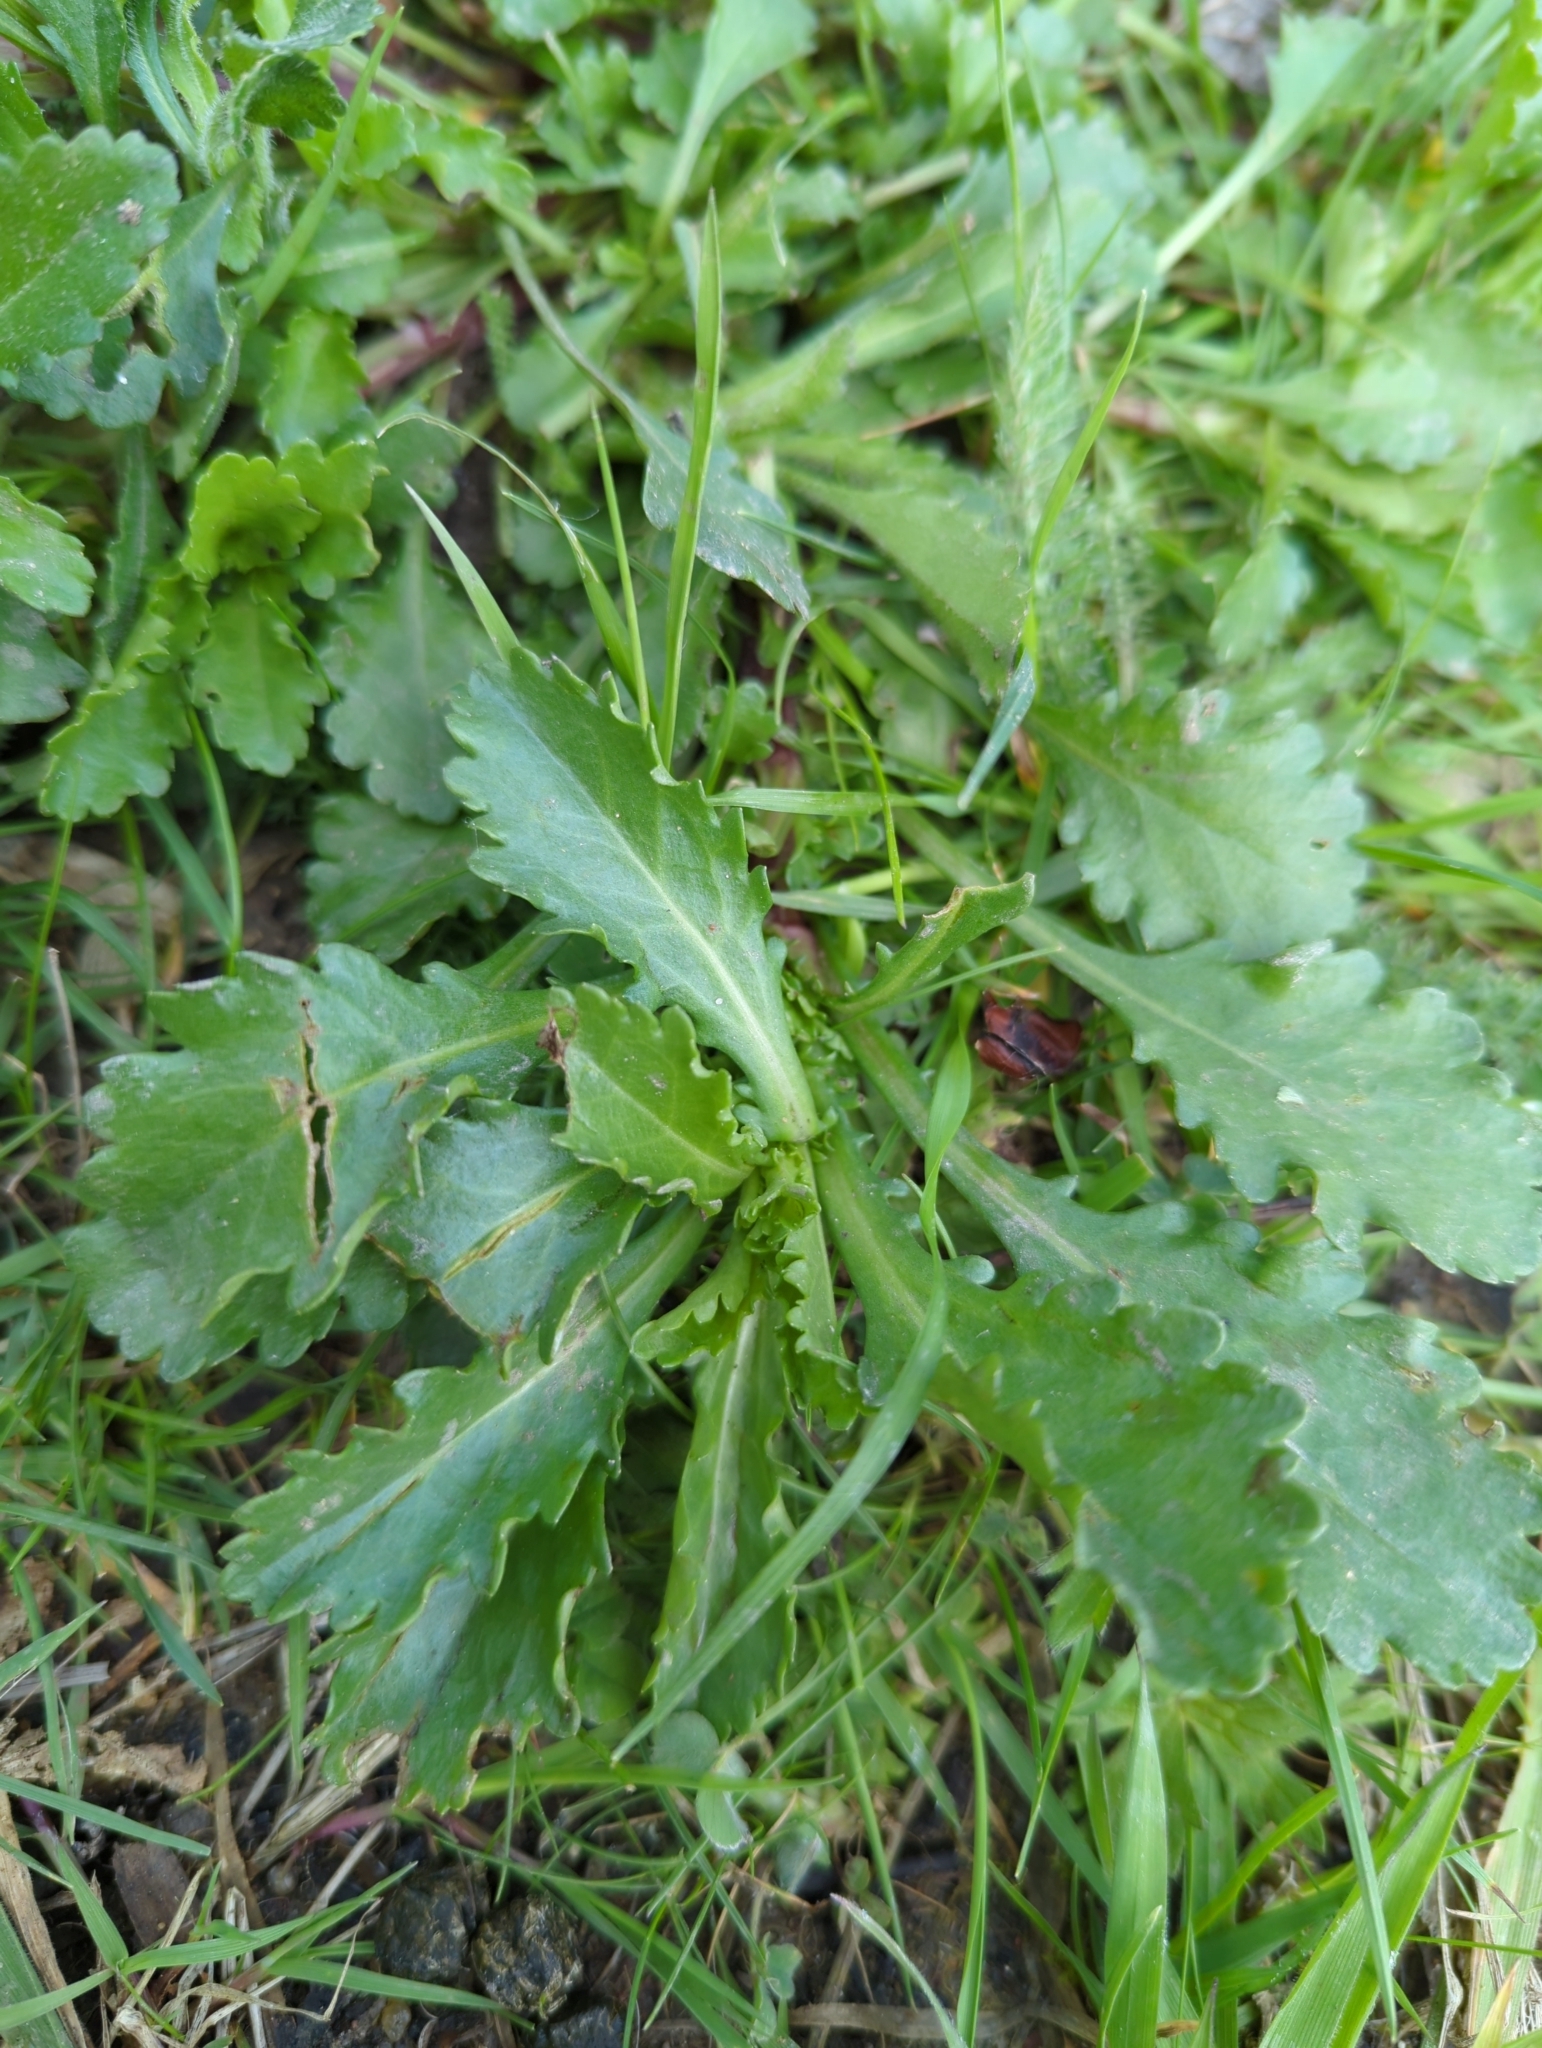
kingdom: Plantae
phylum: Tracheophyta
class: Magnoliopsida
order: Asterales
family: Asteraceae
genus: Leucanthemum
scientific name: Leucanthemum vulgare
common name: Oxeye daisy
